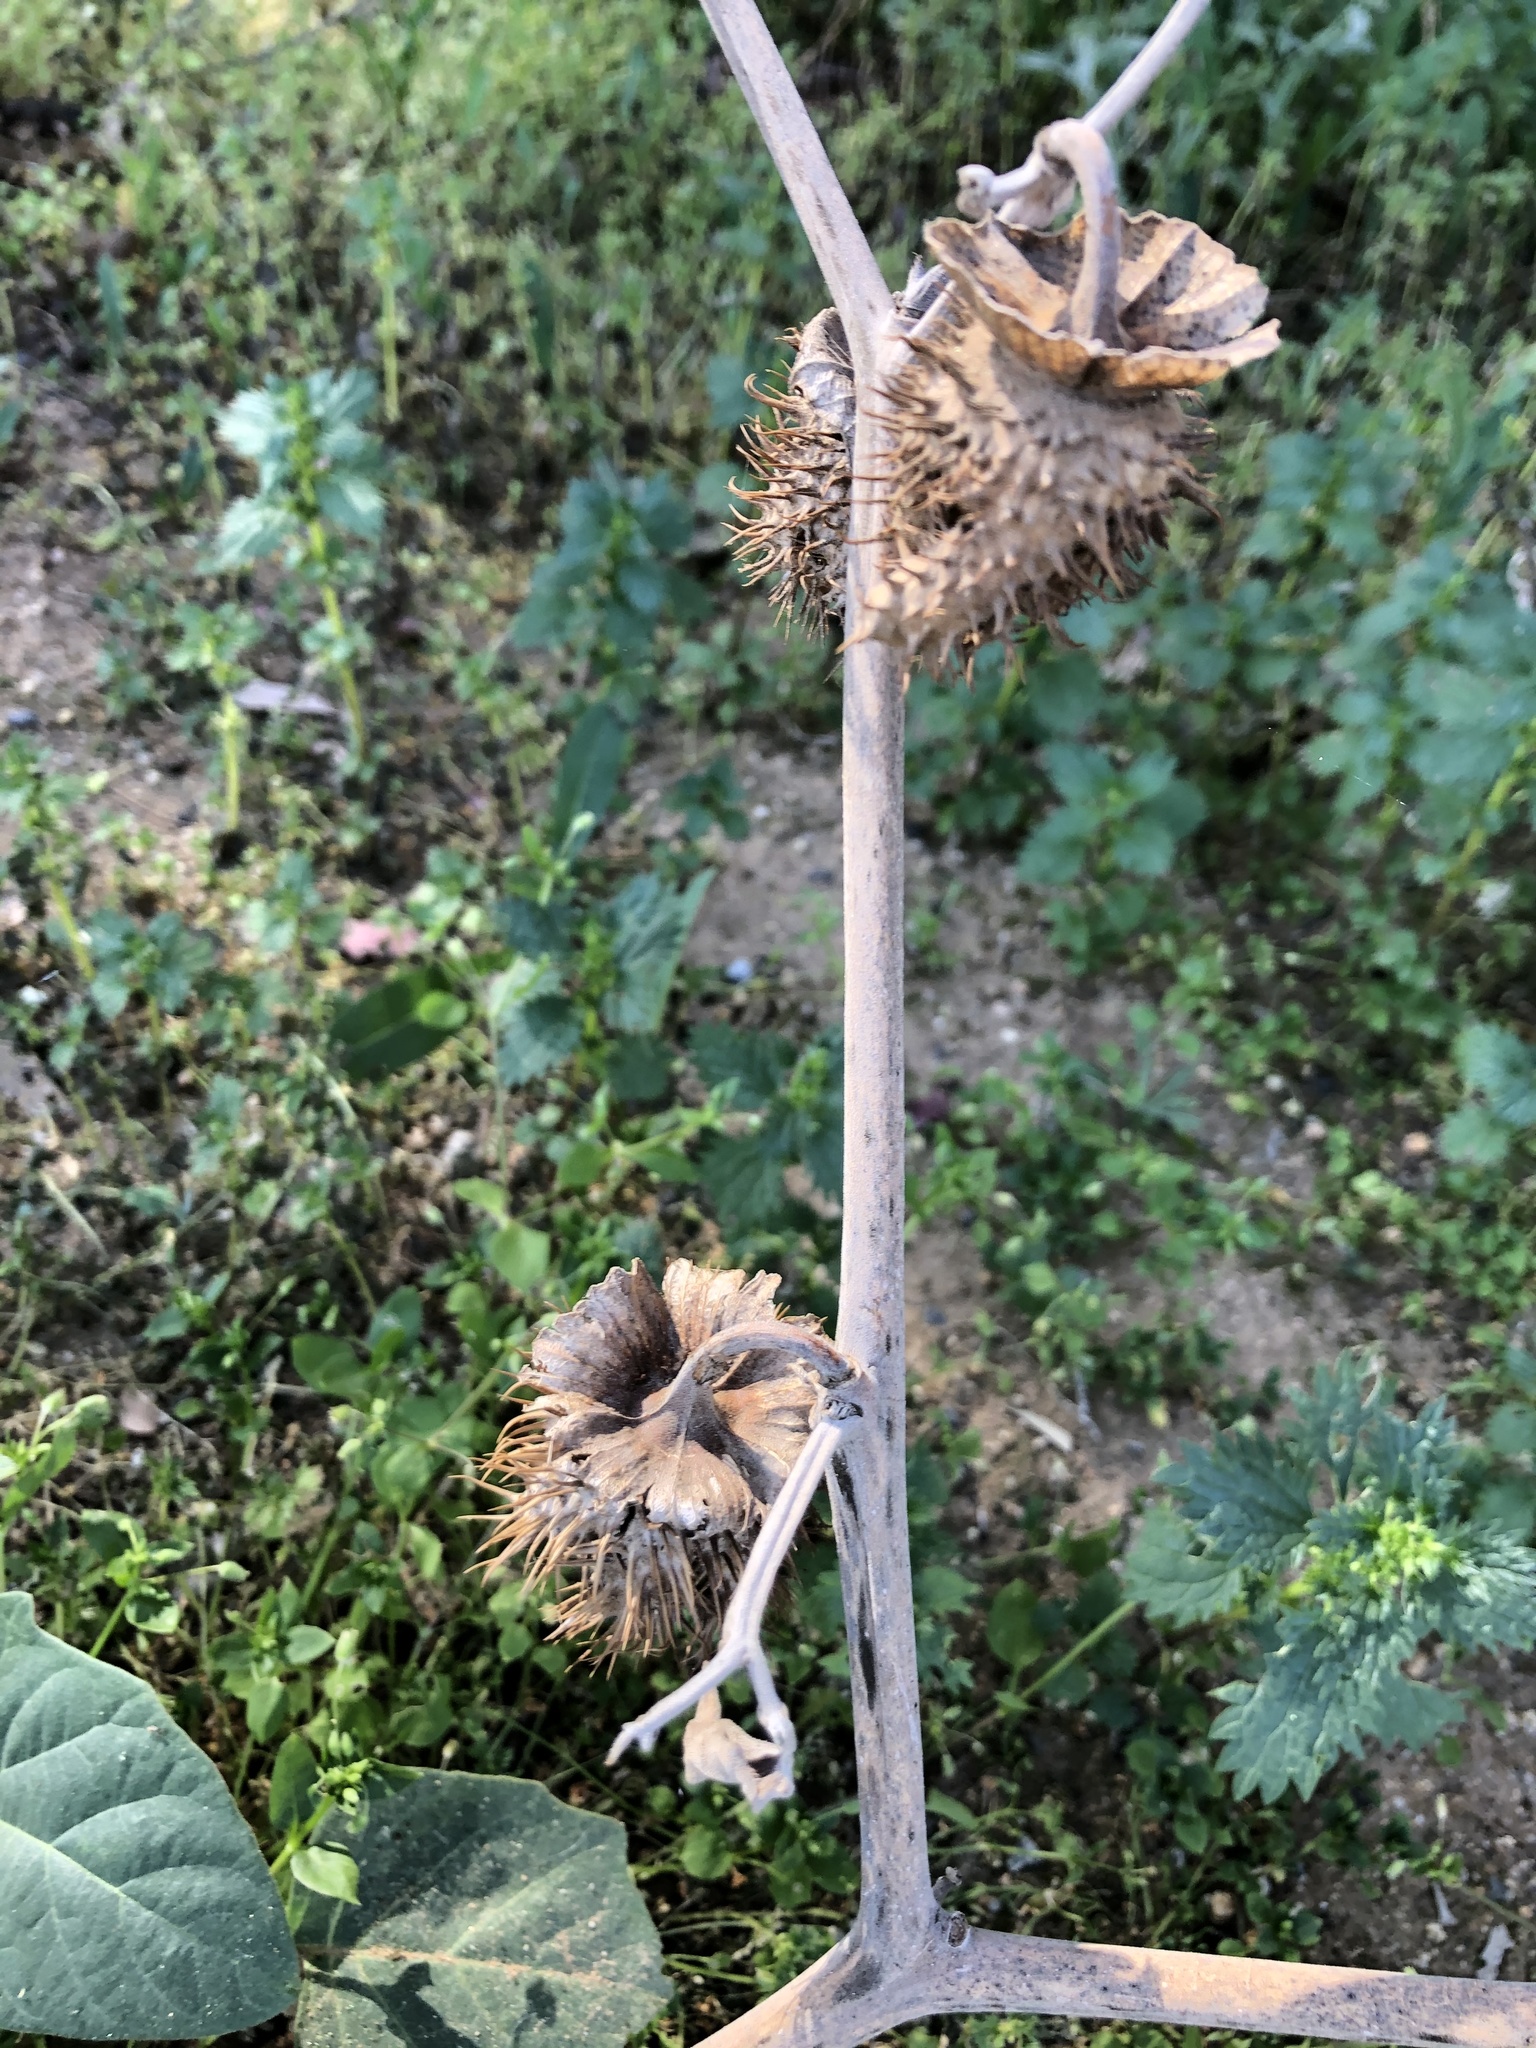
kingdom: Plantae
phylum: Tracheophyta
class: Magnoliopsida
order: Solanales
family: Solanaceae
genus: Datura
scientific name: Datura wrightii
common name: Sacred thorn-apple
